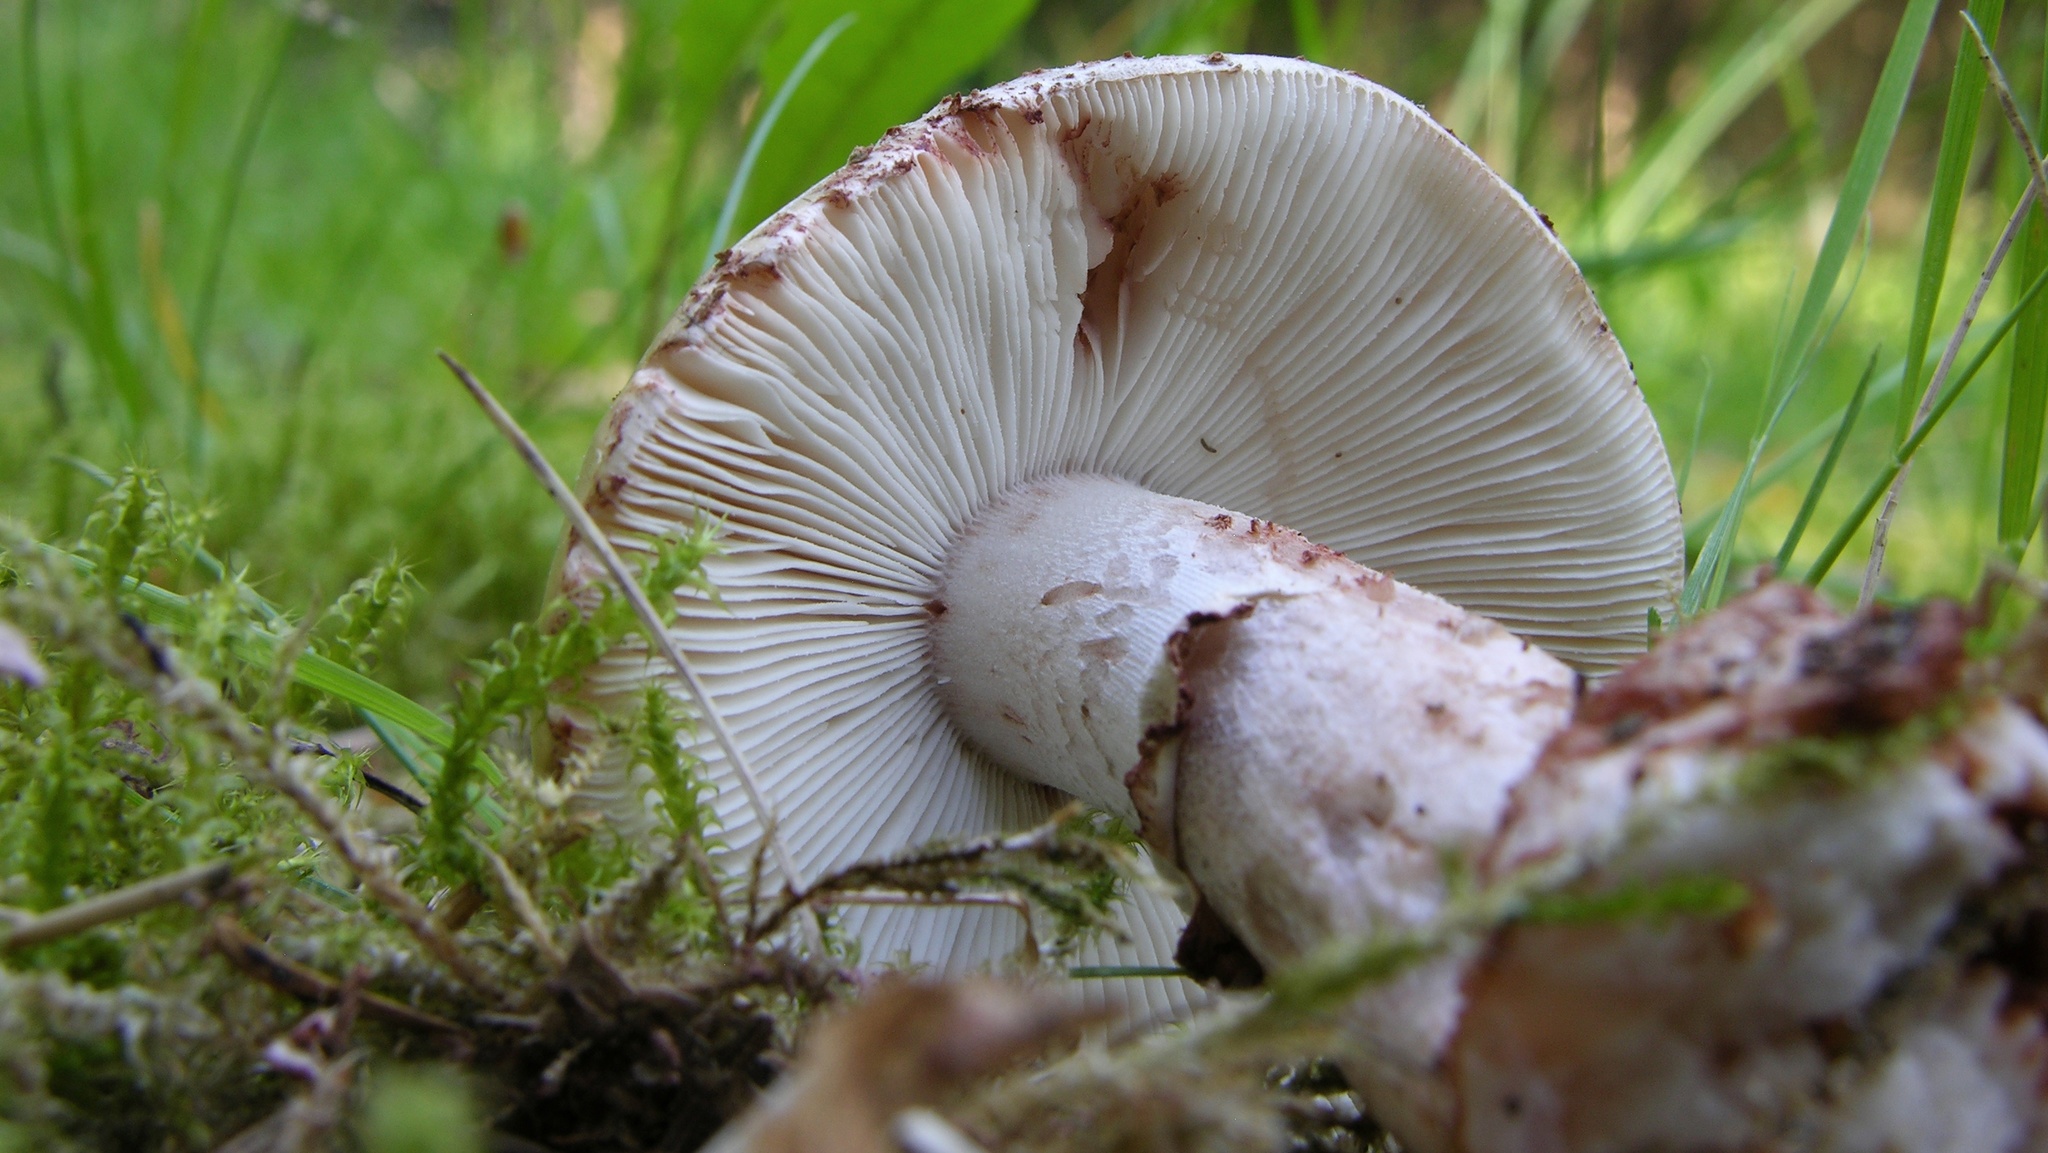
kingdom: Fungi
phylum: Basidiomycota
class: Agaricomycetes
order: Agaricales
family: Amanitaceae
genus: Amanita
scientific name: Amanita rubescens
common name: Blusher
